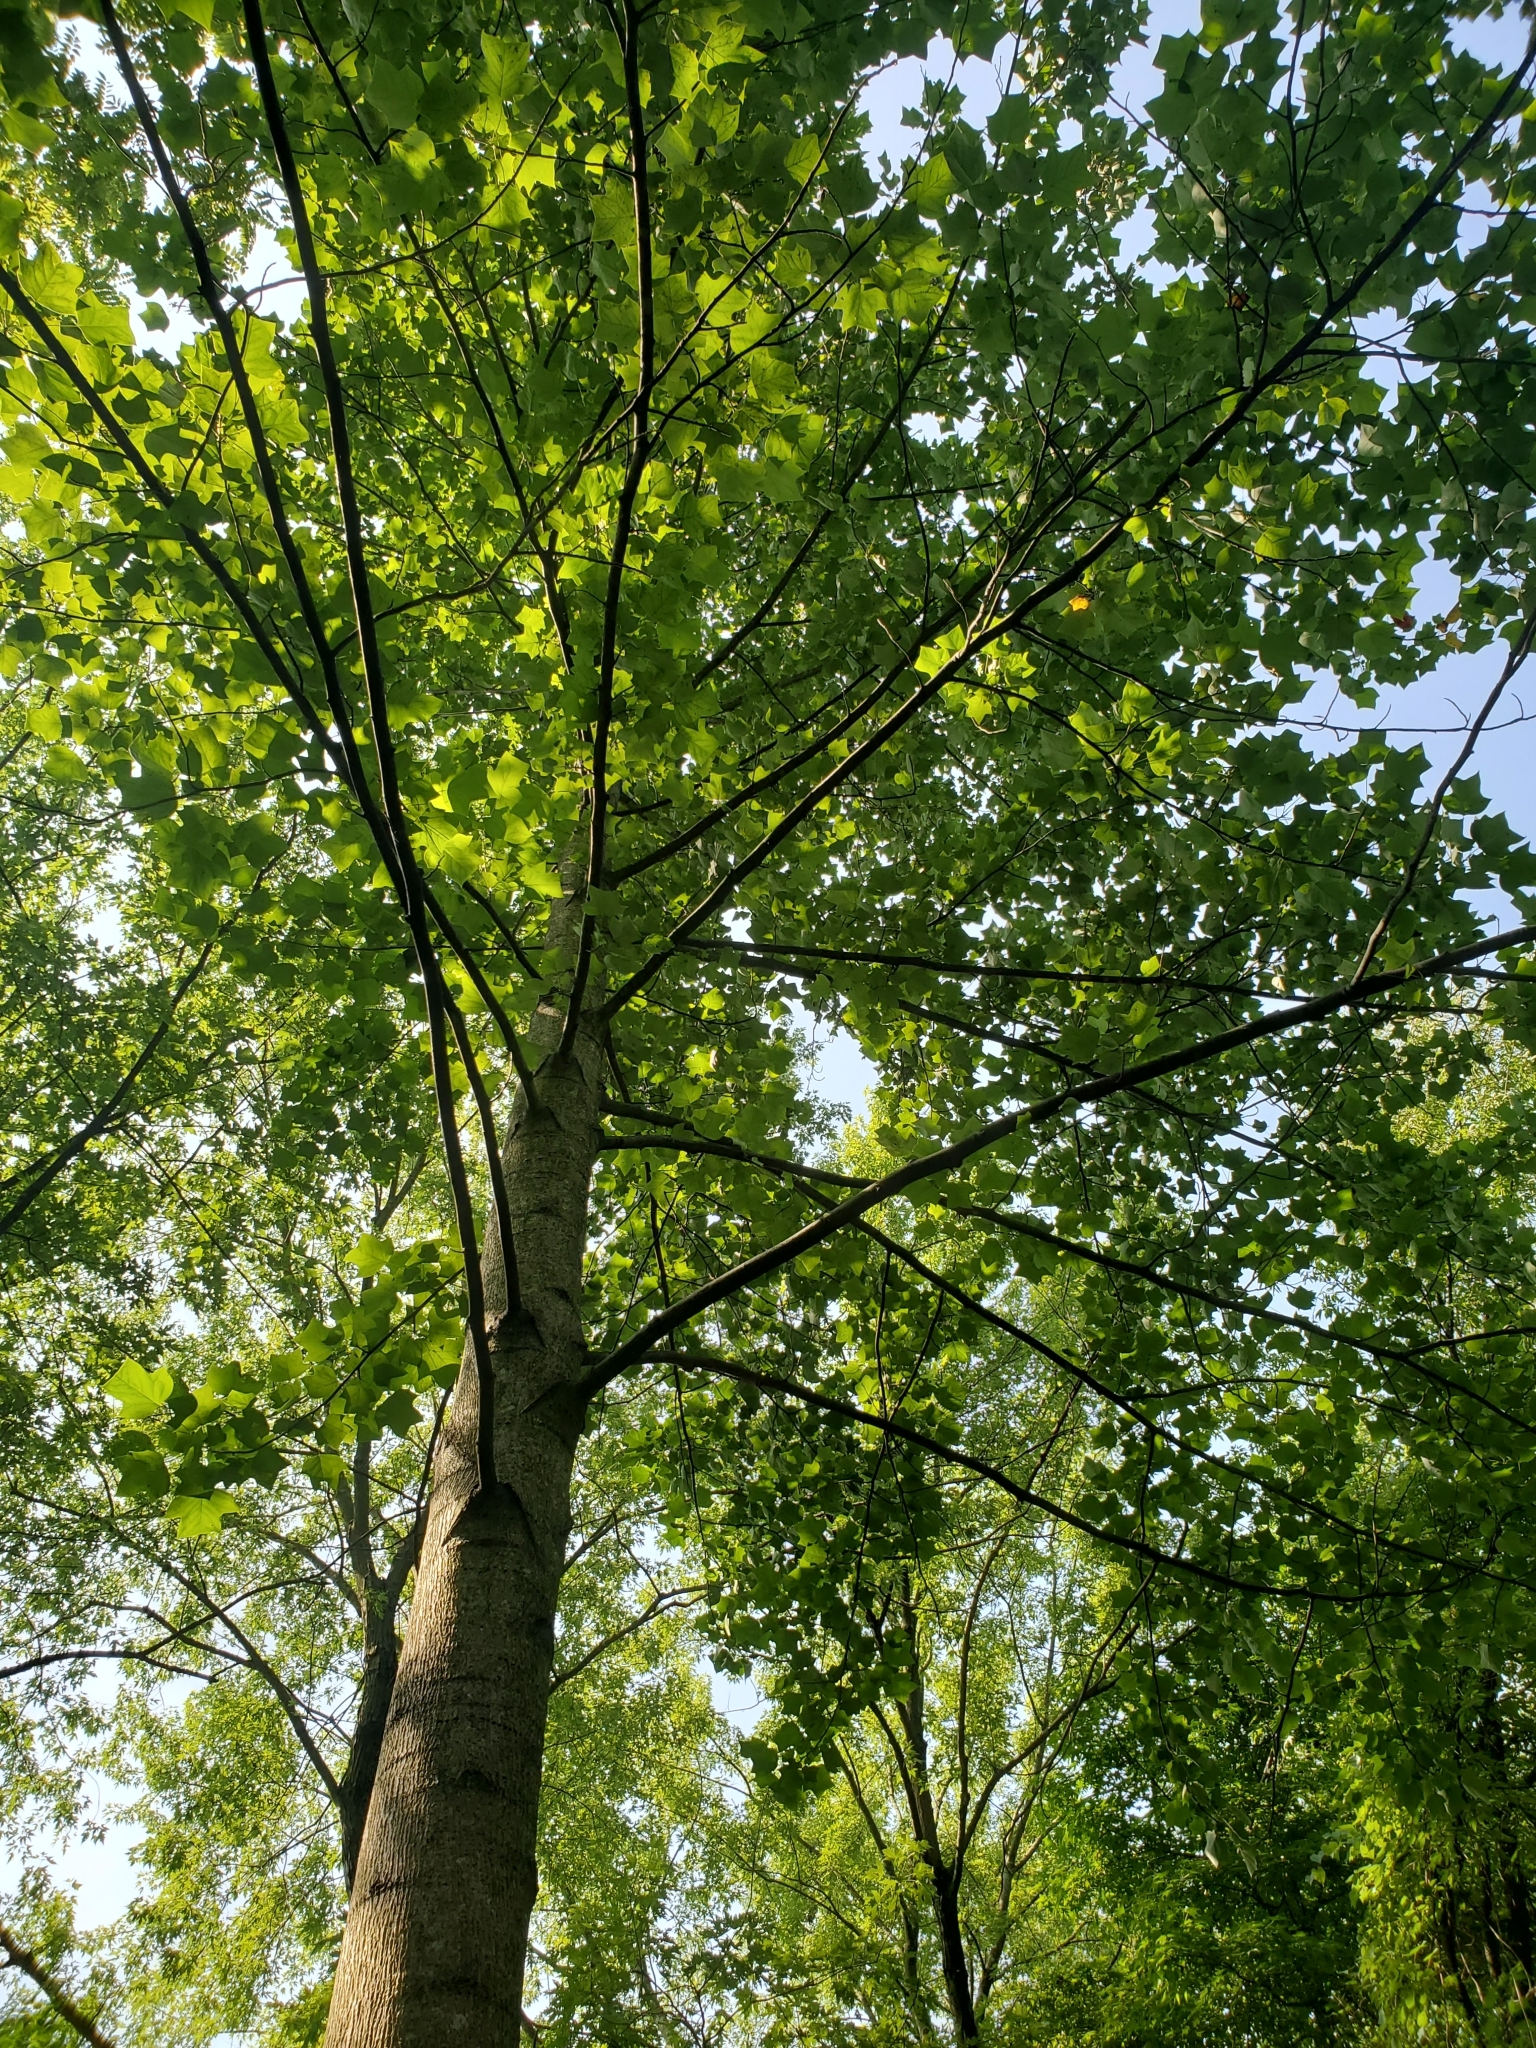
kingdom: Plantae
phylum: Tracheophyta
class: Magnoliopsida
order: Magnoliales
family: Magnoliaceae
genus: Liriodendron
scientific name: Liriodendron tulipifera
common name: Tulip tree
